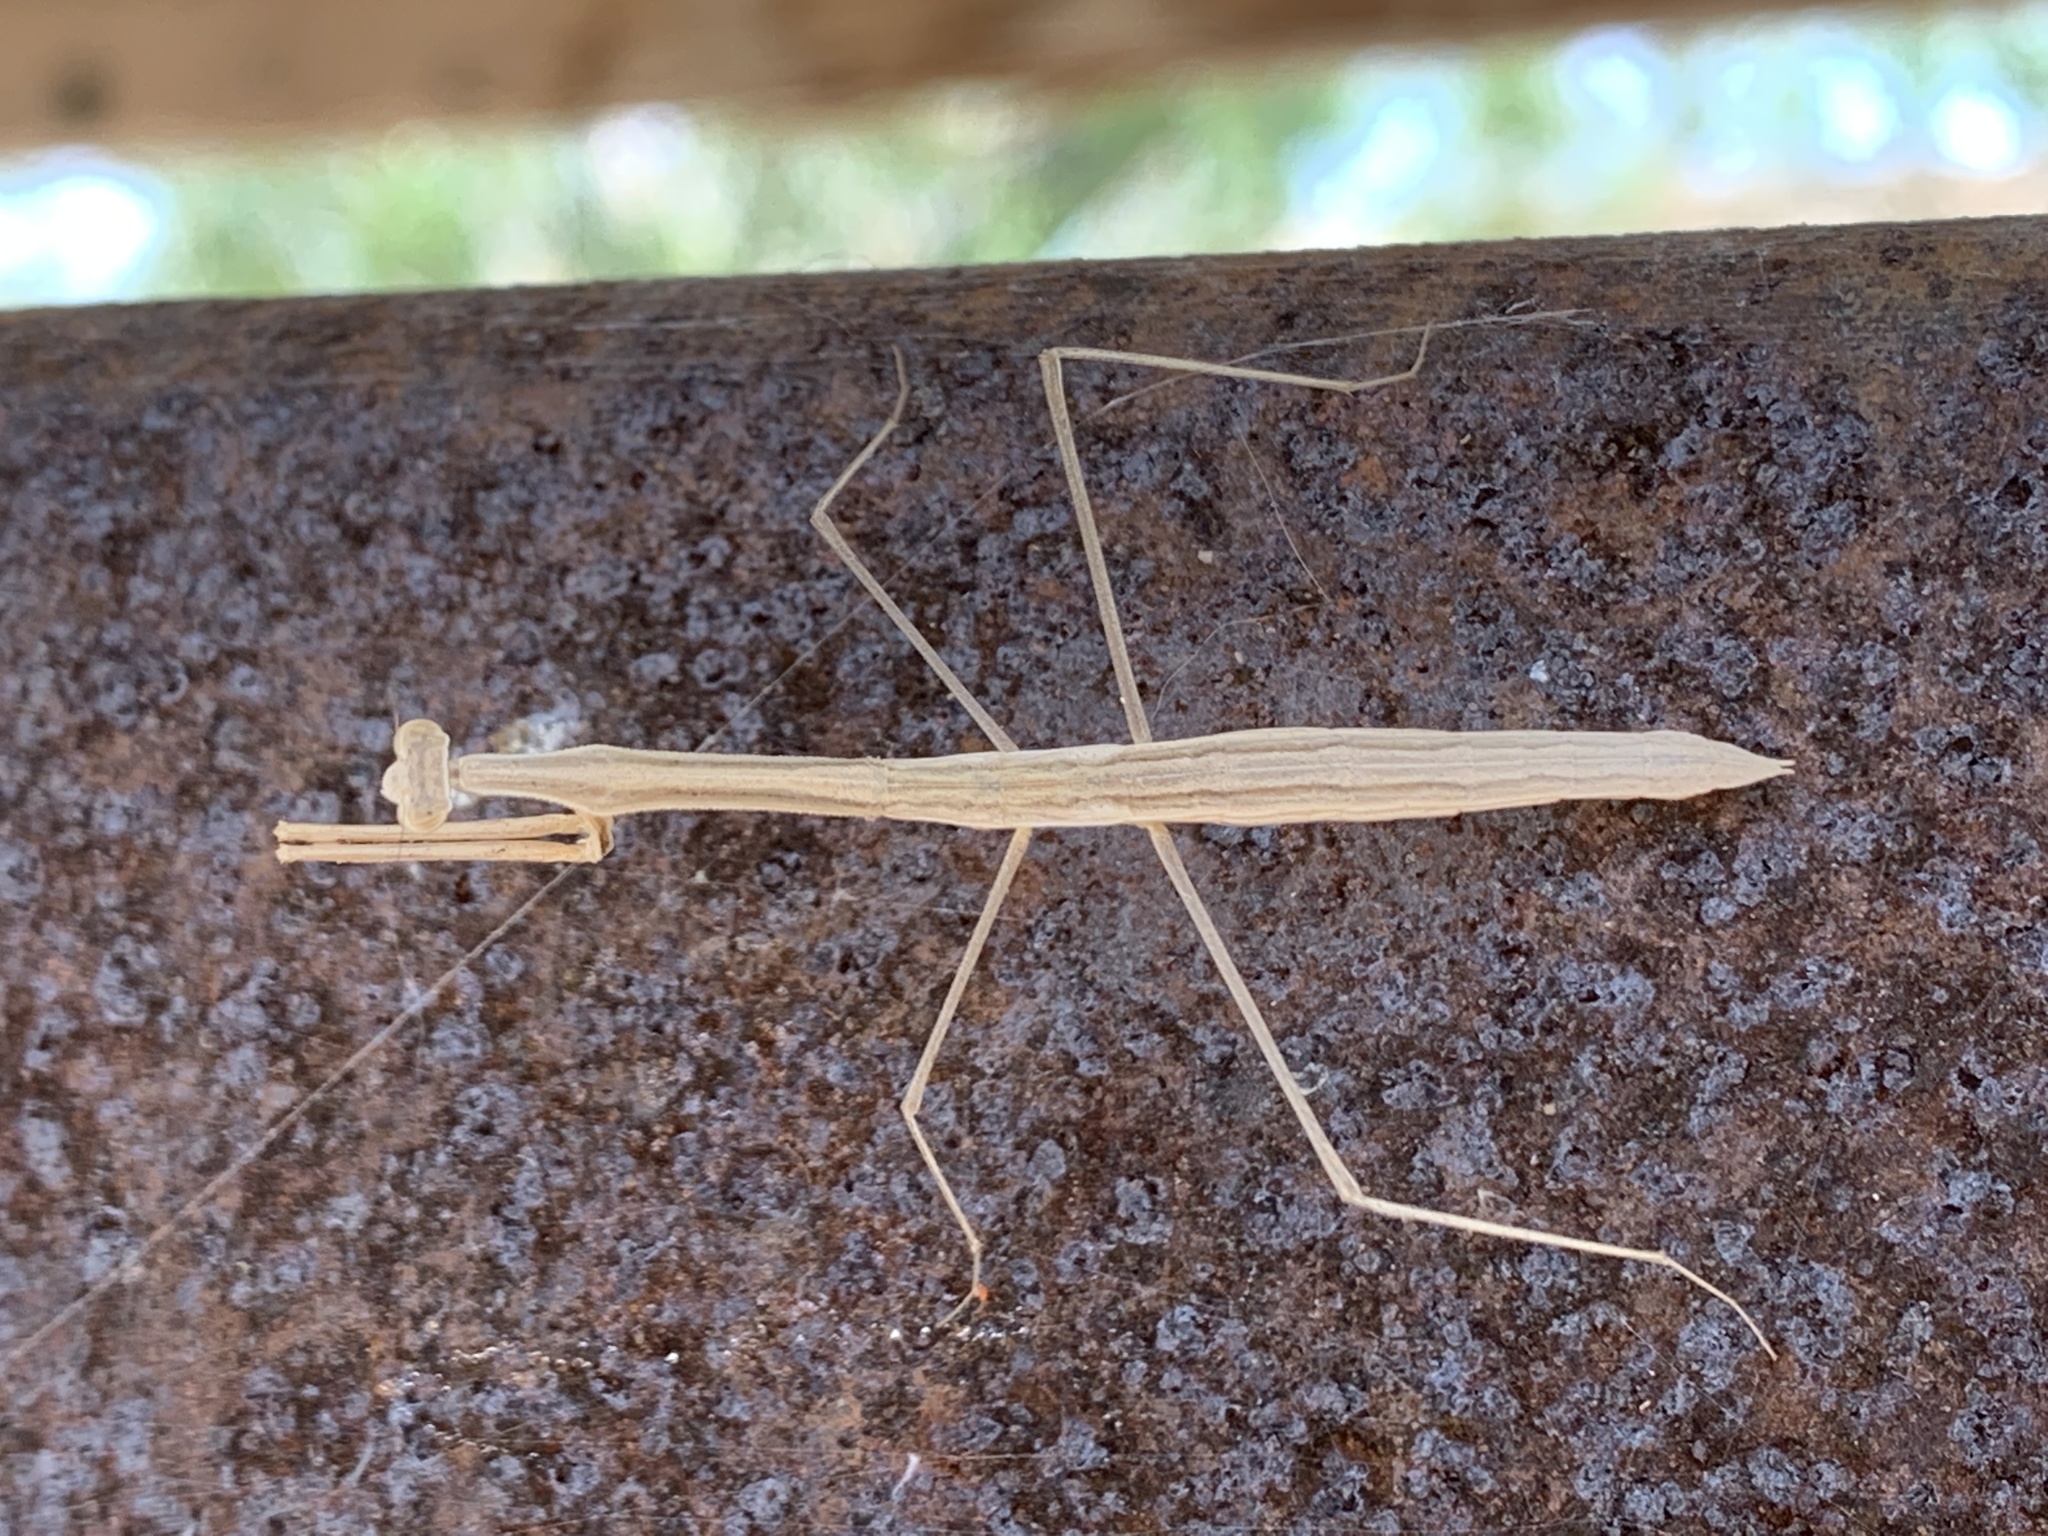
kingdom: Animalia
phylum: Arthropoda
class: Insecta
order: Mantodea
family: Thespidae
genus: Bistanta
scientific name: Bistanta campestris
